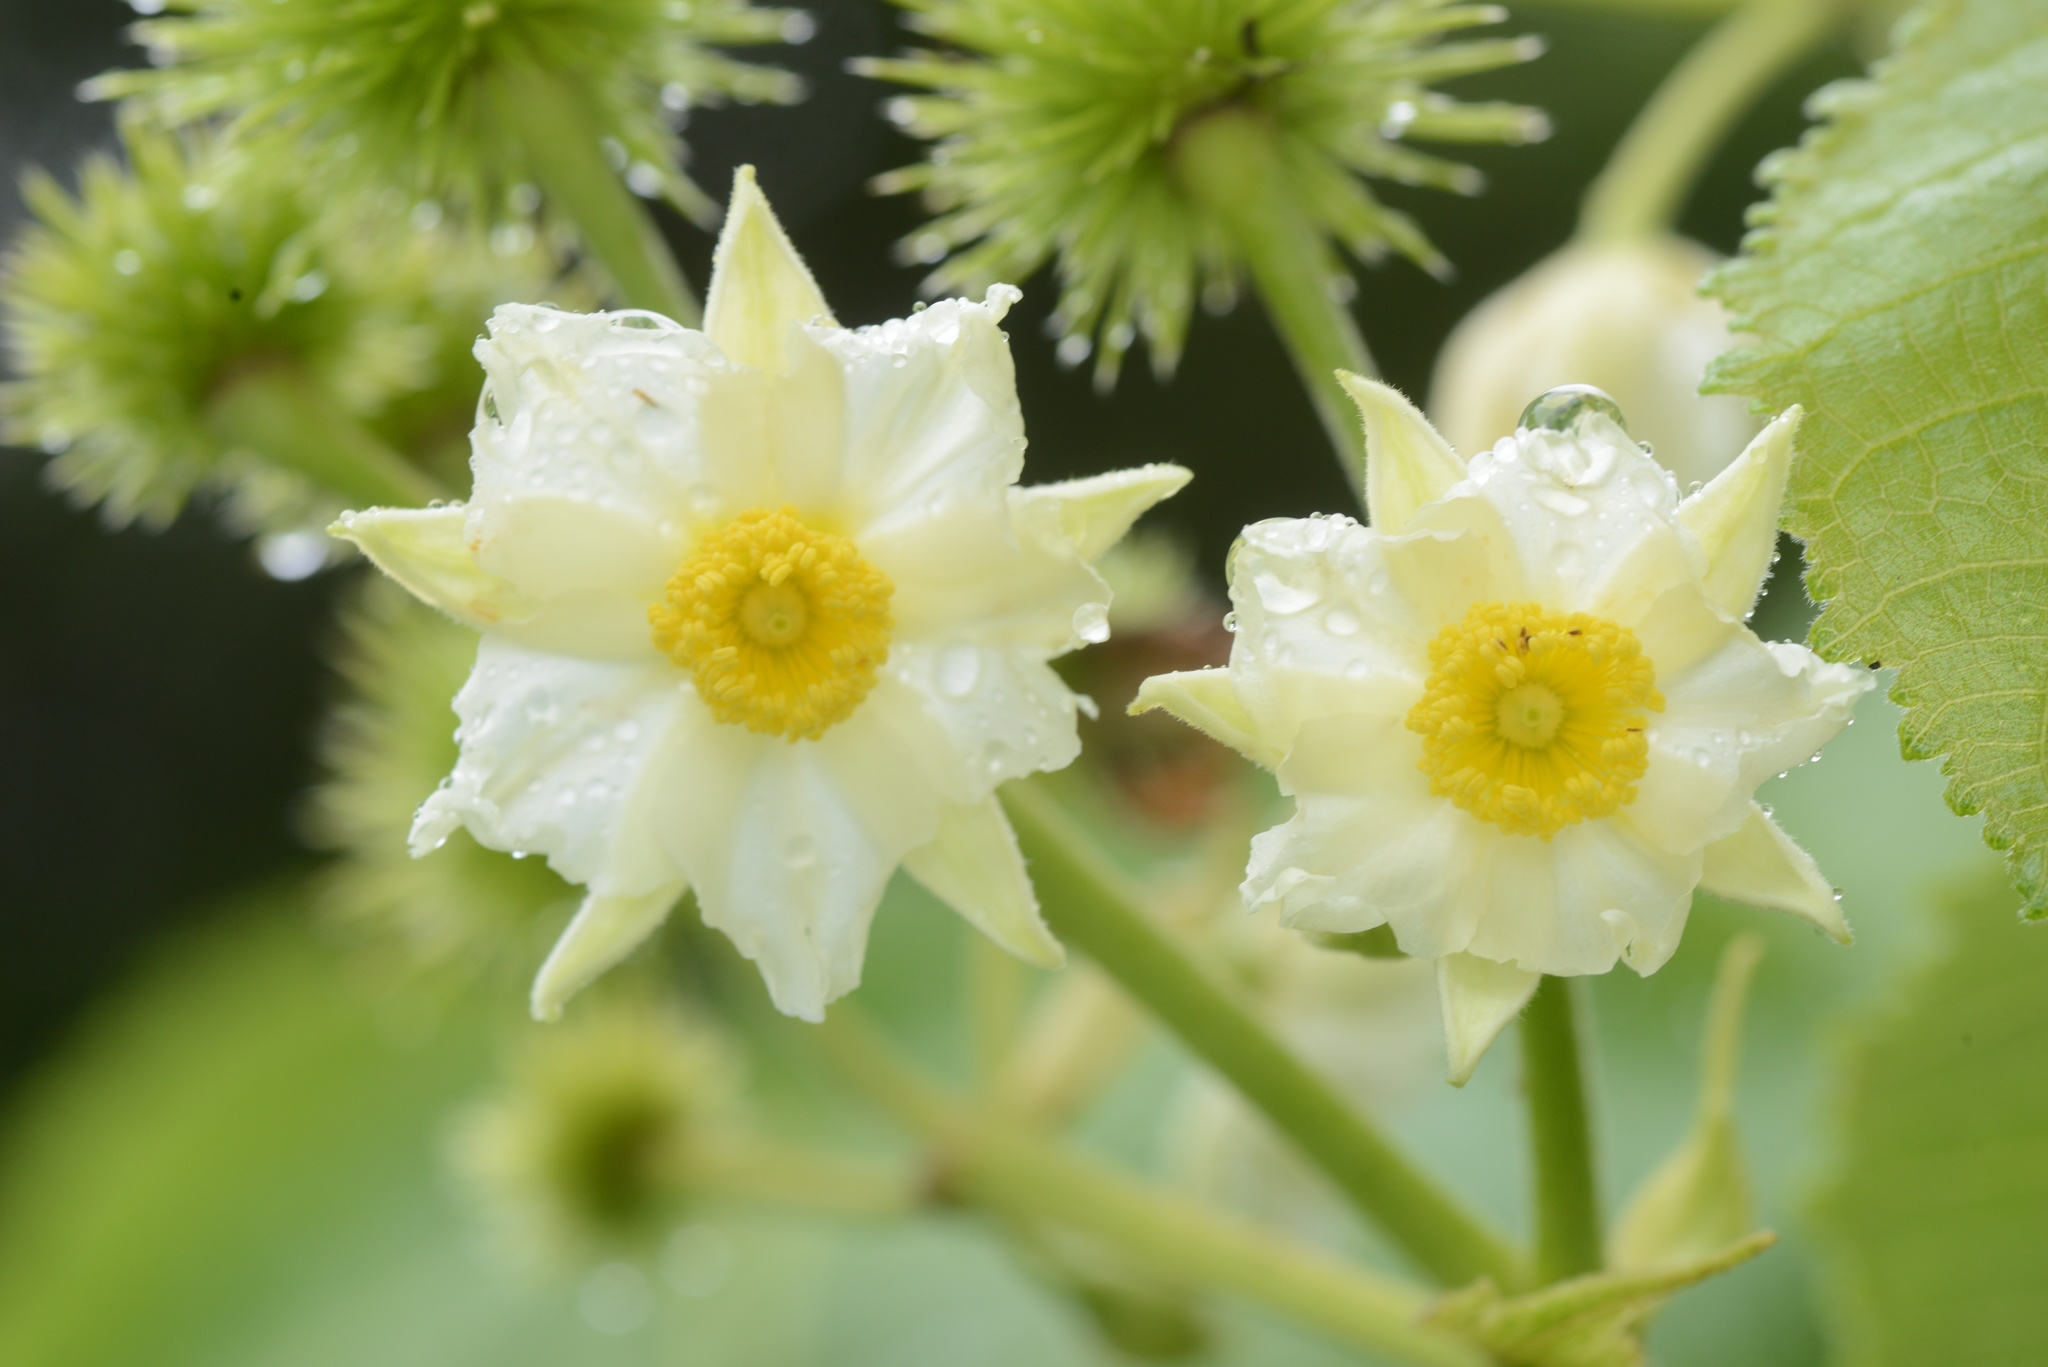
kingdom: Plantae
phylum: Tracheophyta
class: Magnoliopsida
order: Malvales
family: Malvaceae
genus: Entelea
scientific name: Entelea arborescens
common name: New zealand-mulberry
